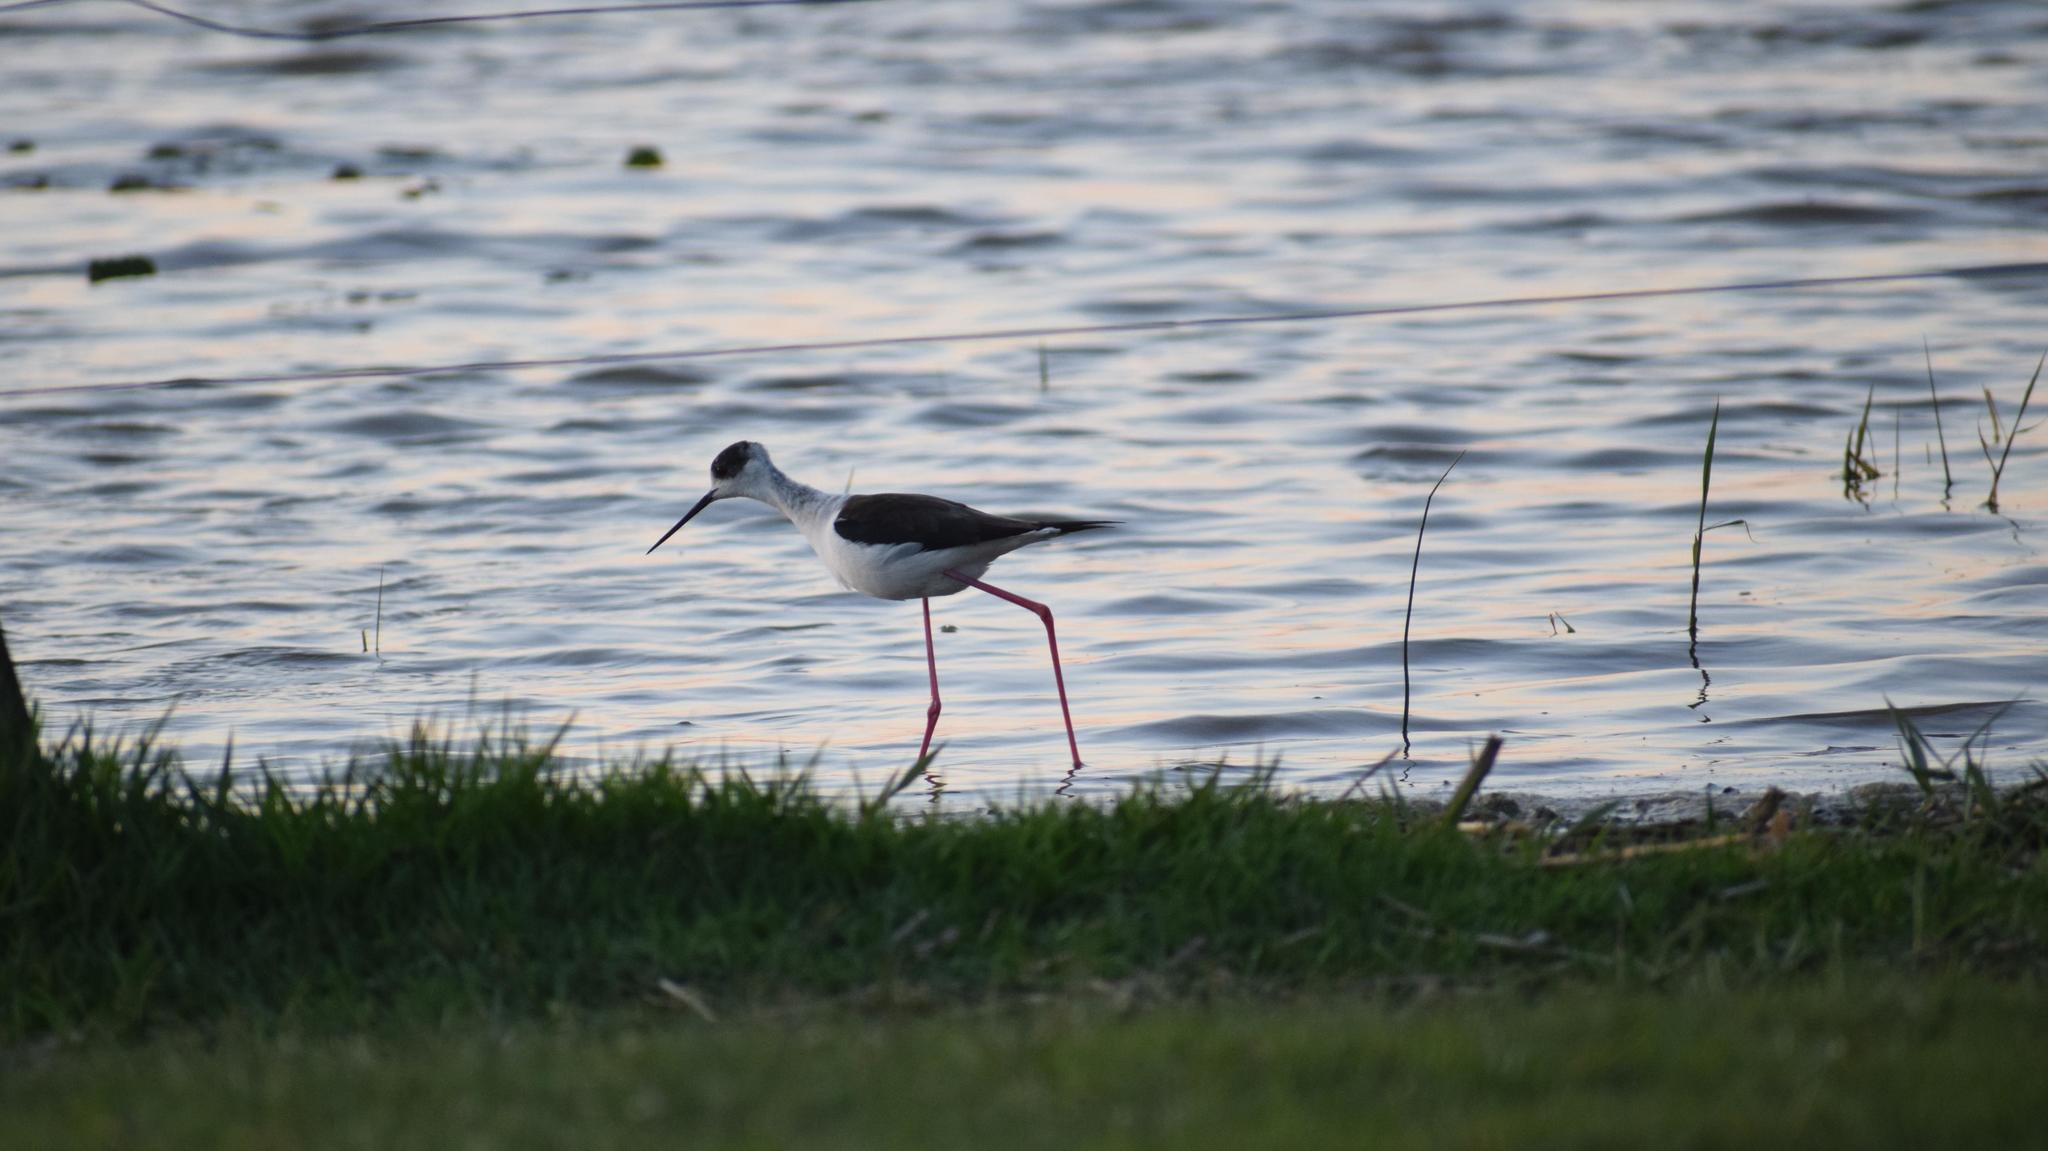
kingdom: Animalia
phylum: Chordata
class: Aves
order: Charadriiformes
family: Recurvirostridae
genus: Himantopus
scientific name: Himantopus himantopus
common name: Black-winged stilt
